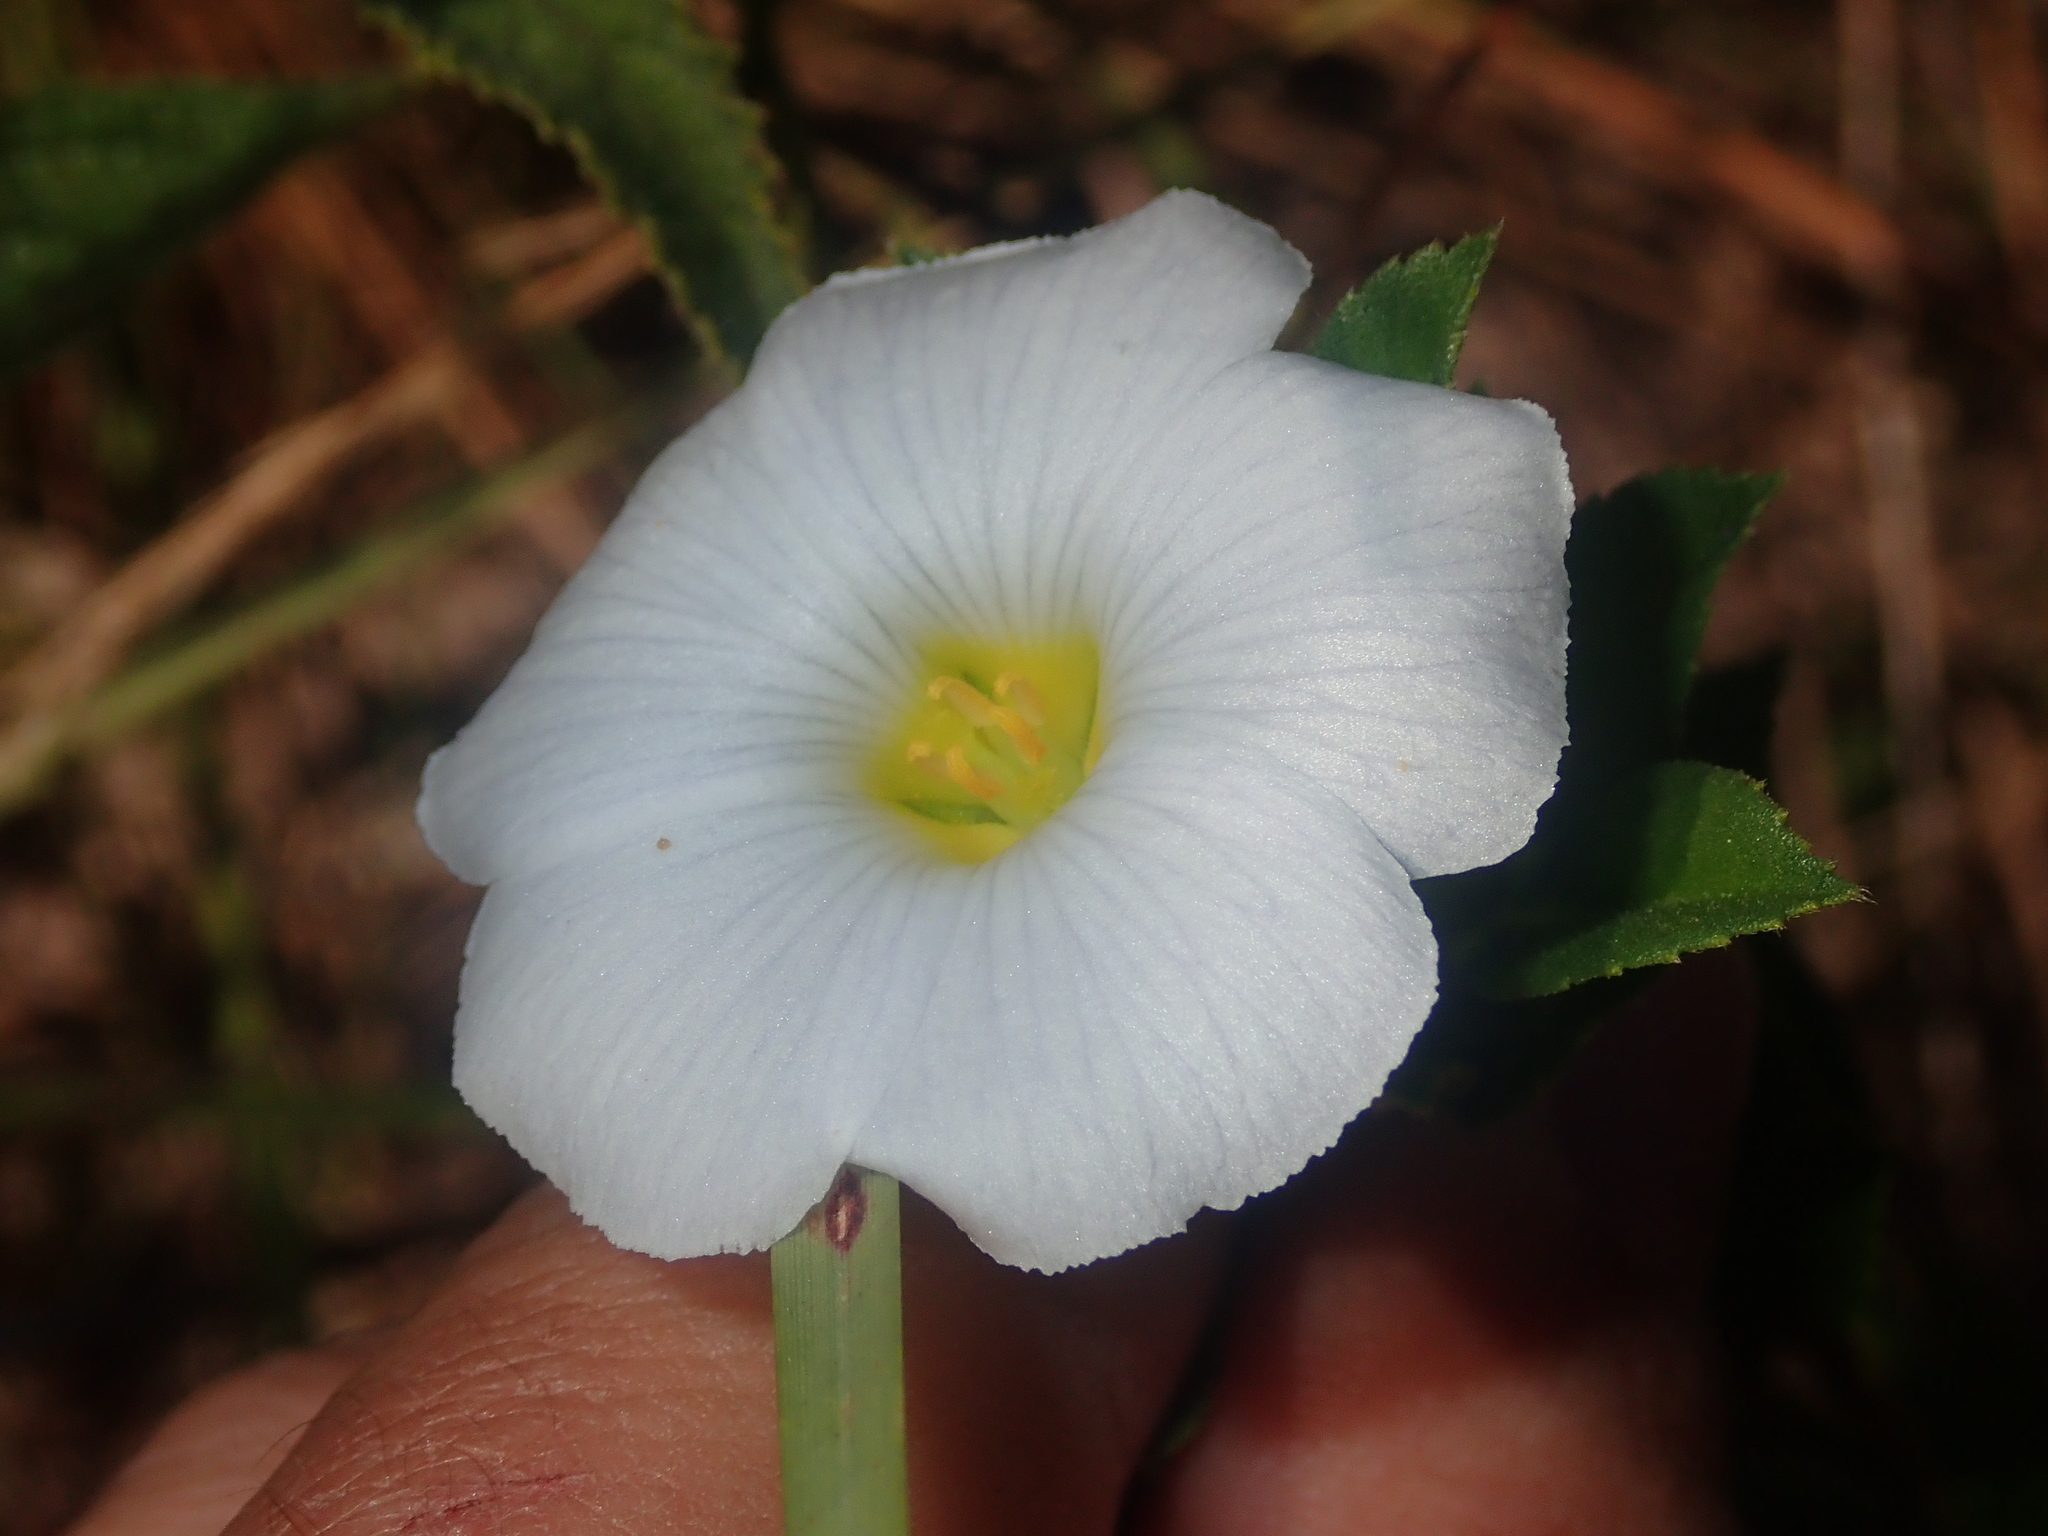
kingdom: Plantae
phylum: Tracheophyta
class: Magnoliopsida
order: Malpighiales
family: Turneraceae
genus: Turnera
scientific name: Turnera coerulea
